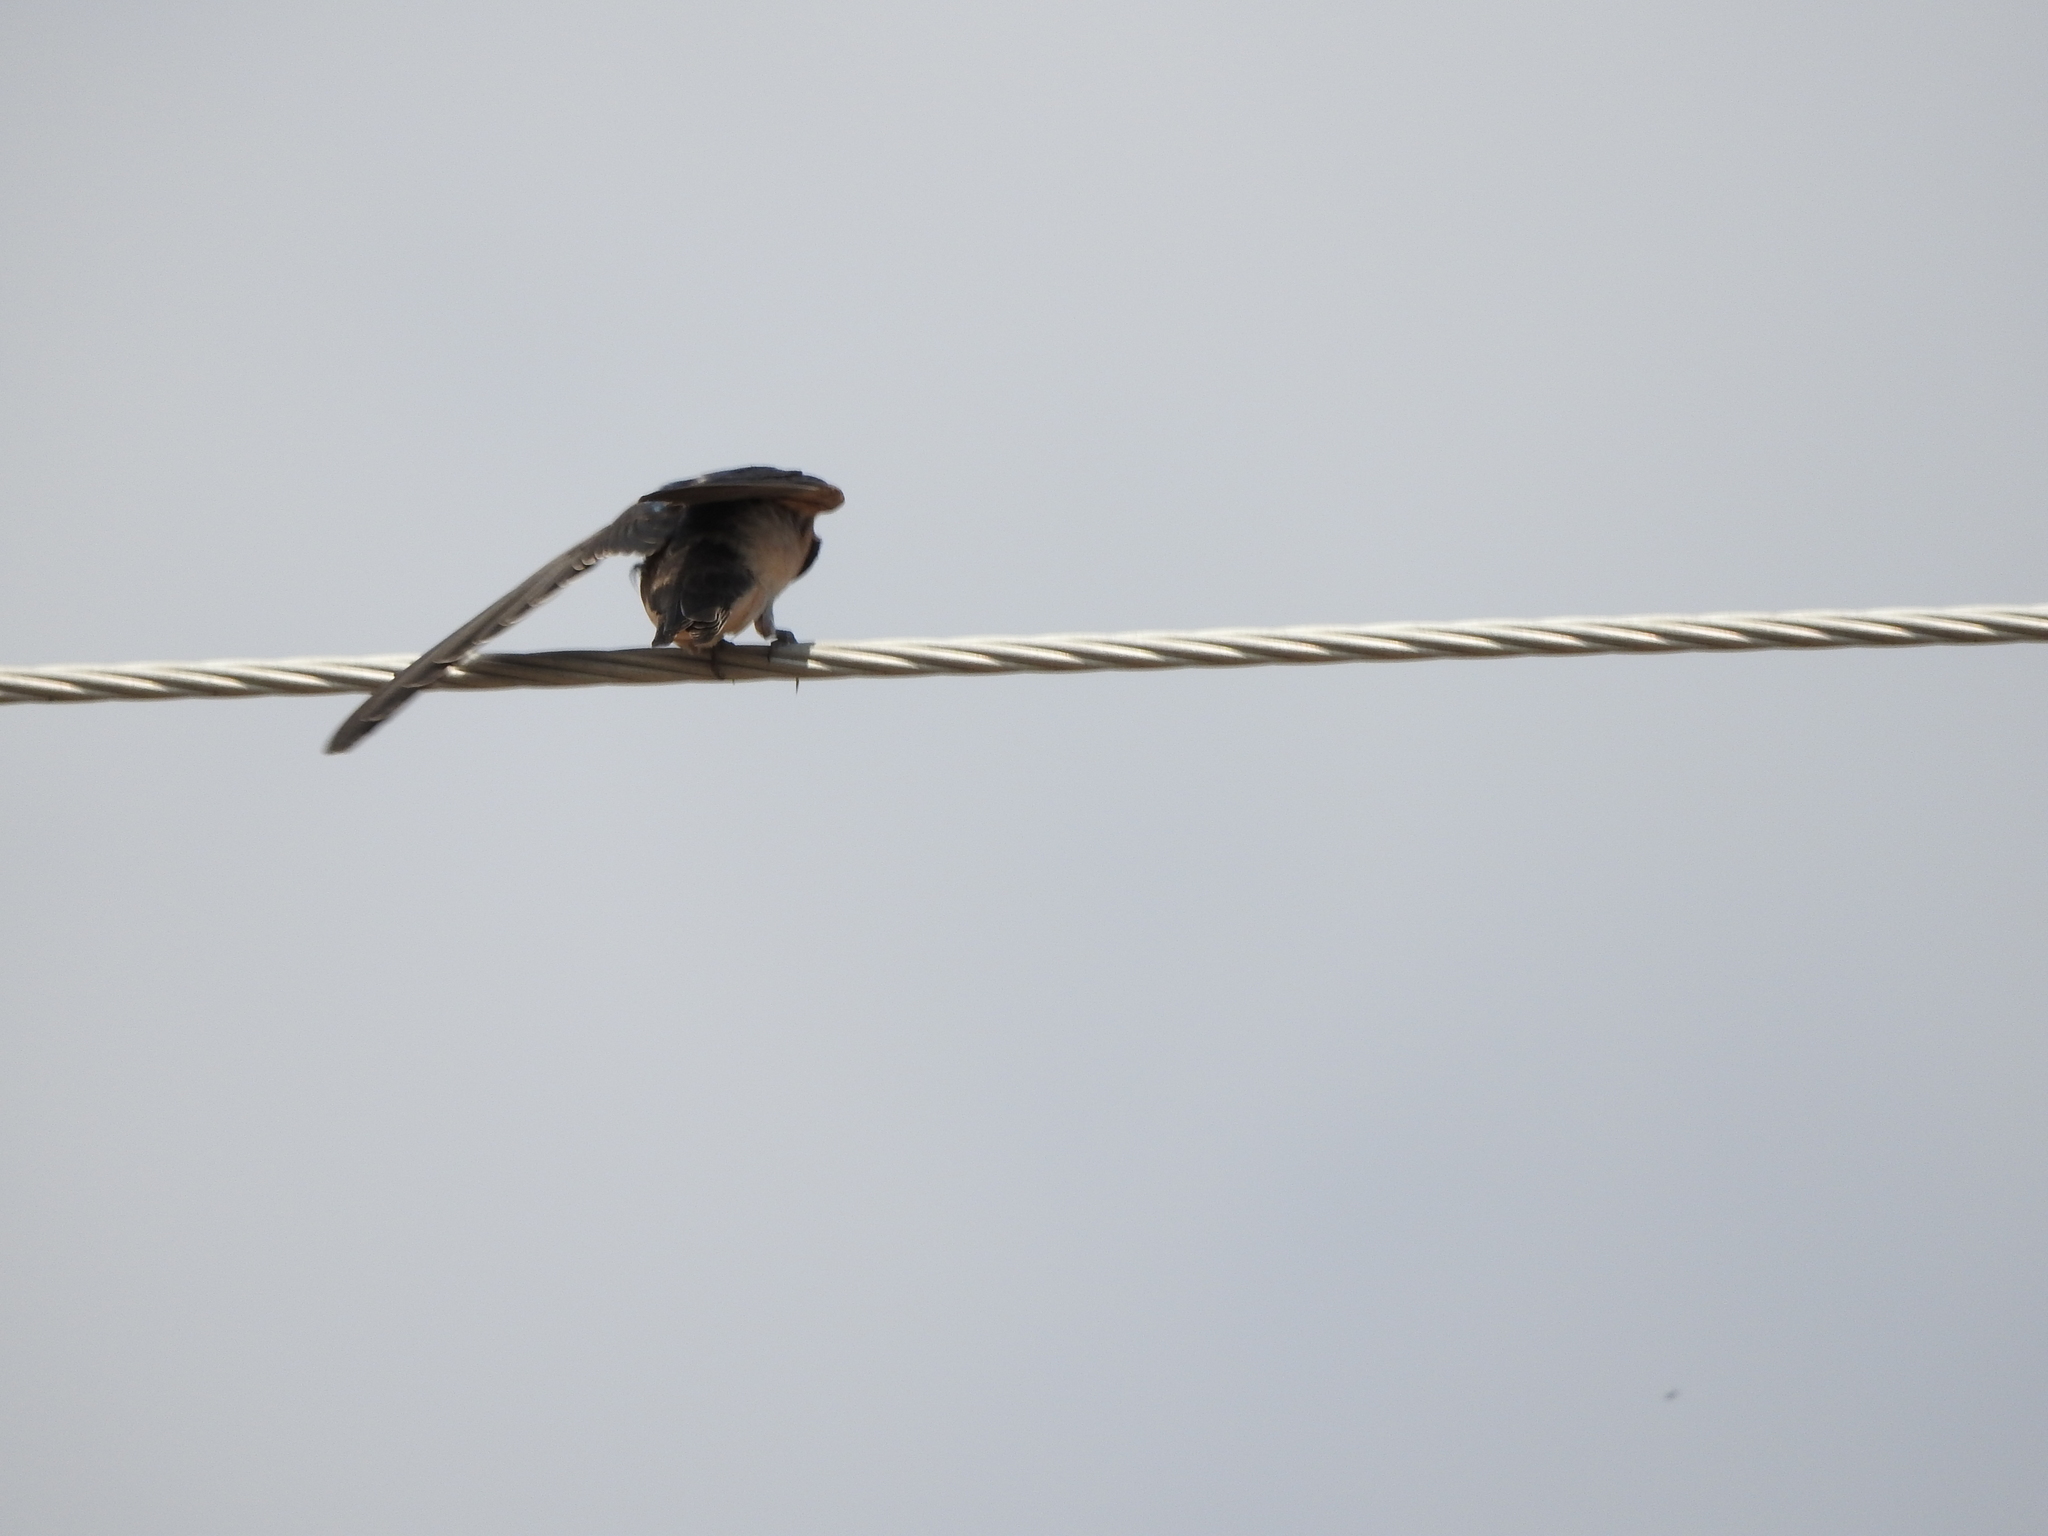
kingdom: Animalia
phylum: Chordata
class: Aves
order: Passeriformes
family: Hirundinidae
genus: Hirundo
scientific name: Hirundo rustica
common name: Barn swallow
